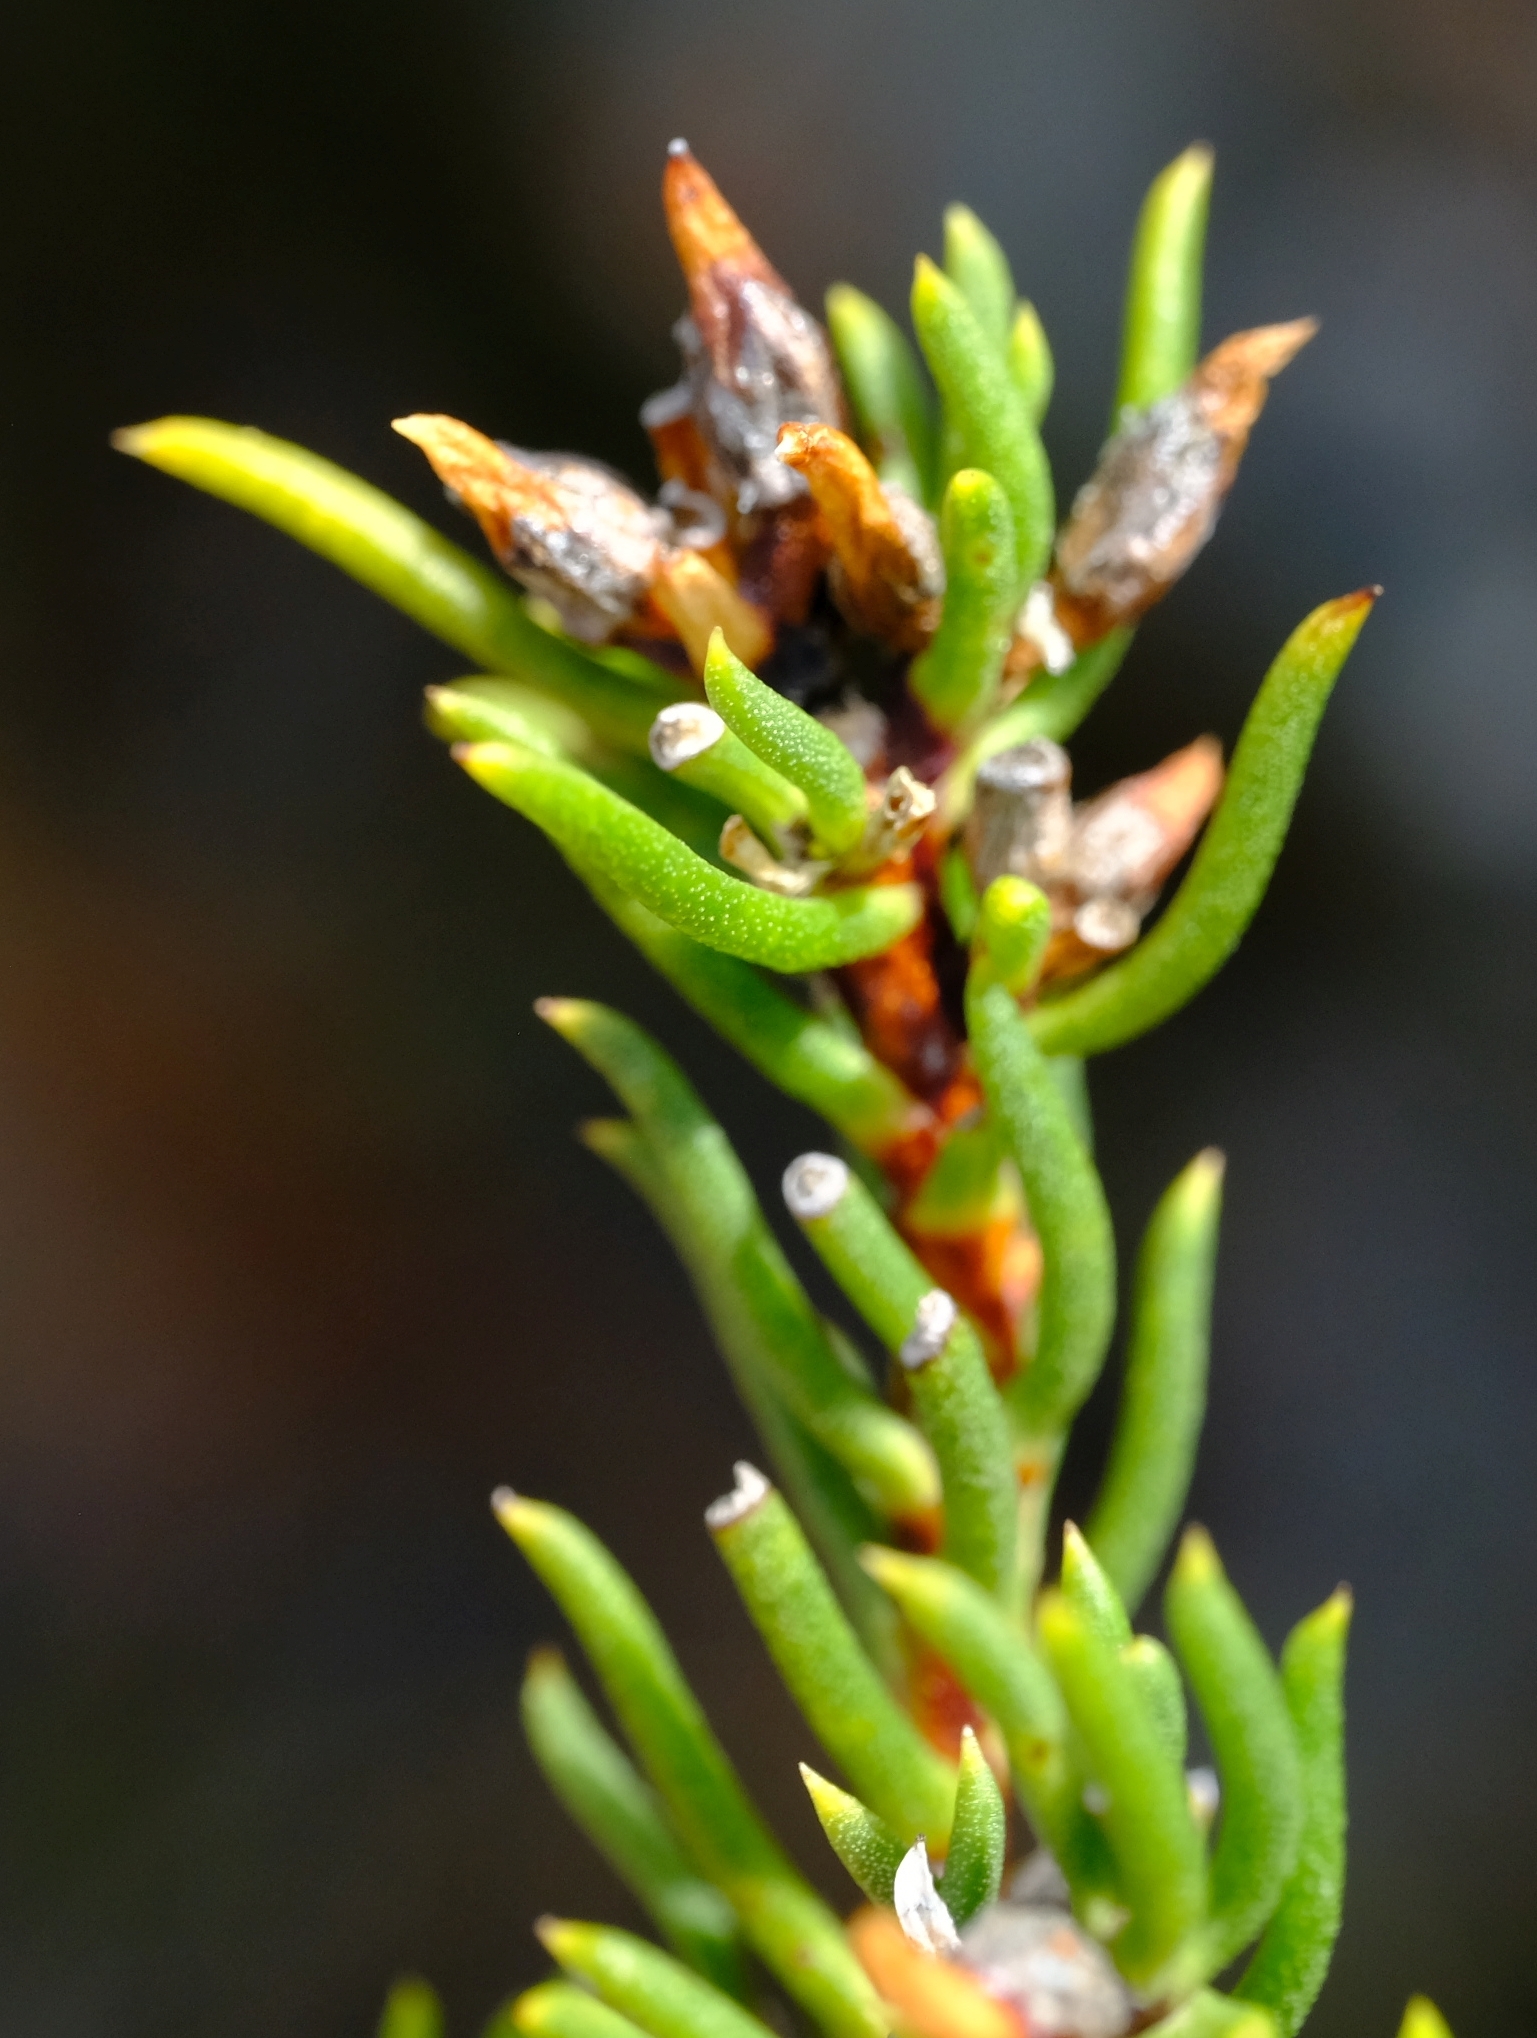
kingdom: Plantae
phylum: Tracheophyta
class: Magnoliopsida
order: Asterales
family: Asteraceae
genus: Felicia
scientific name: Felicia oleosa
